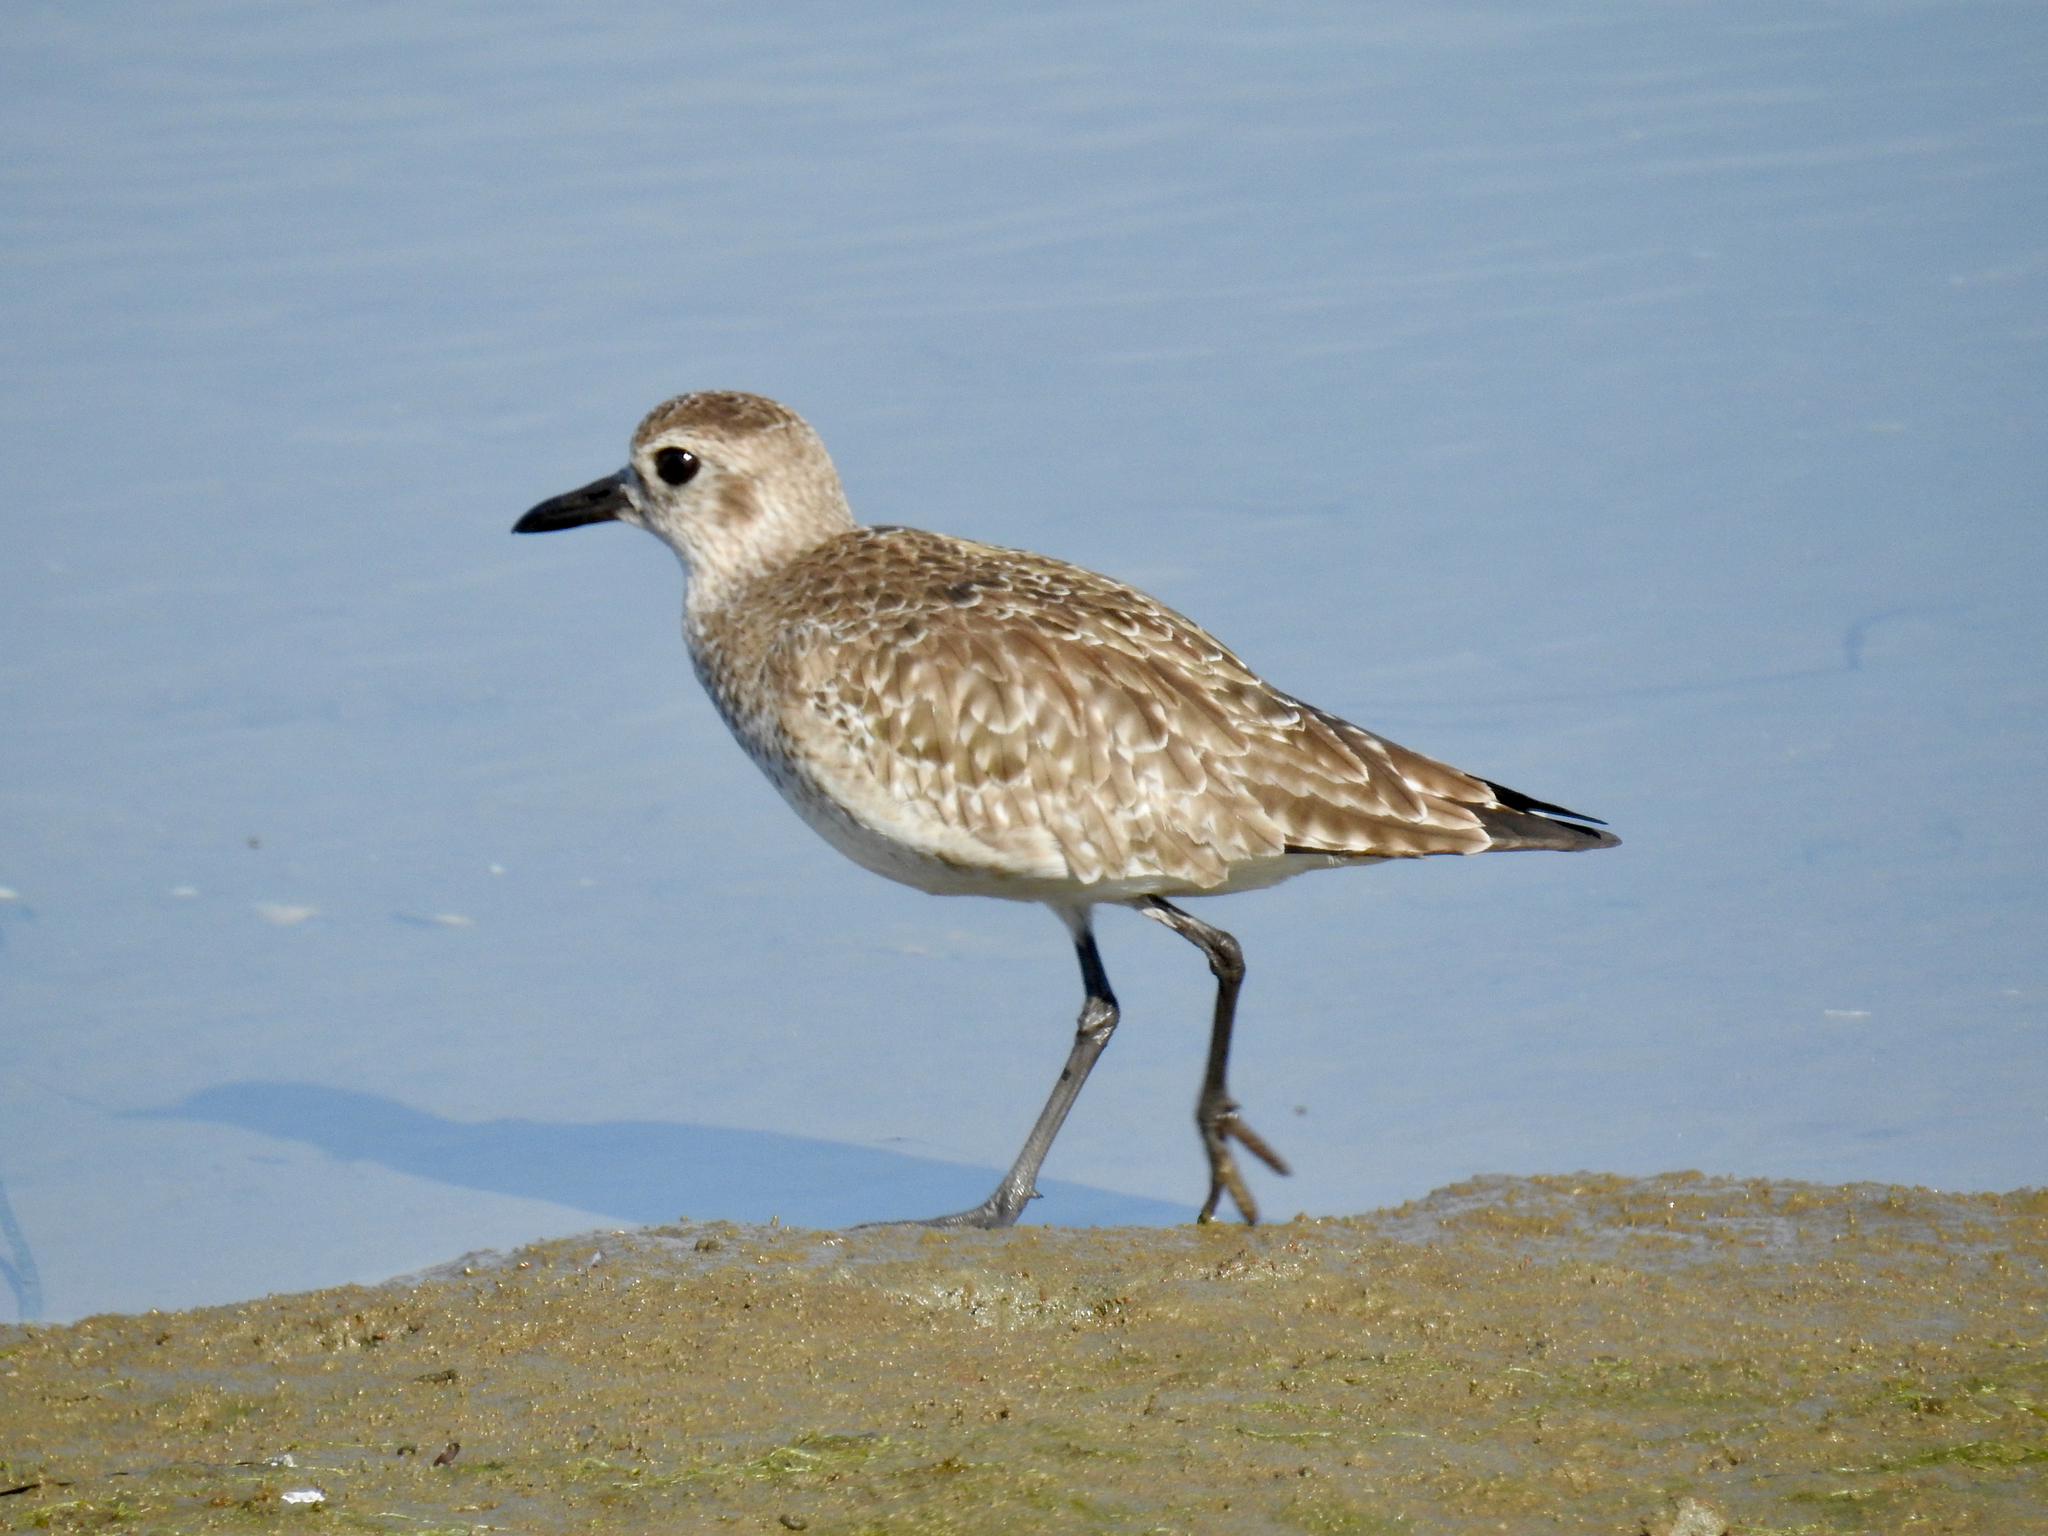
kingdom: Animalia
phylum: Chordata
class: Aves
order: Charadriiformes
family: Charadriidae
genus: Pluvialis
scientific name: Pluvialis squatarola
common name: Grey plover
